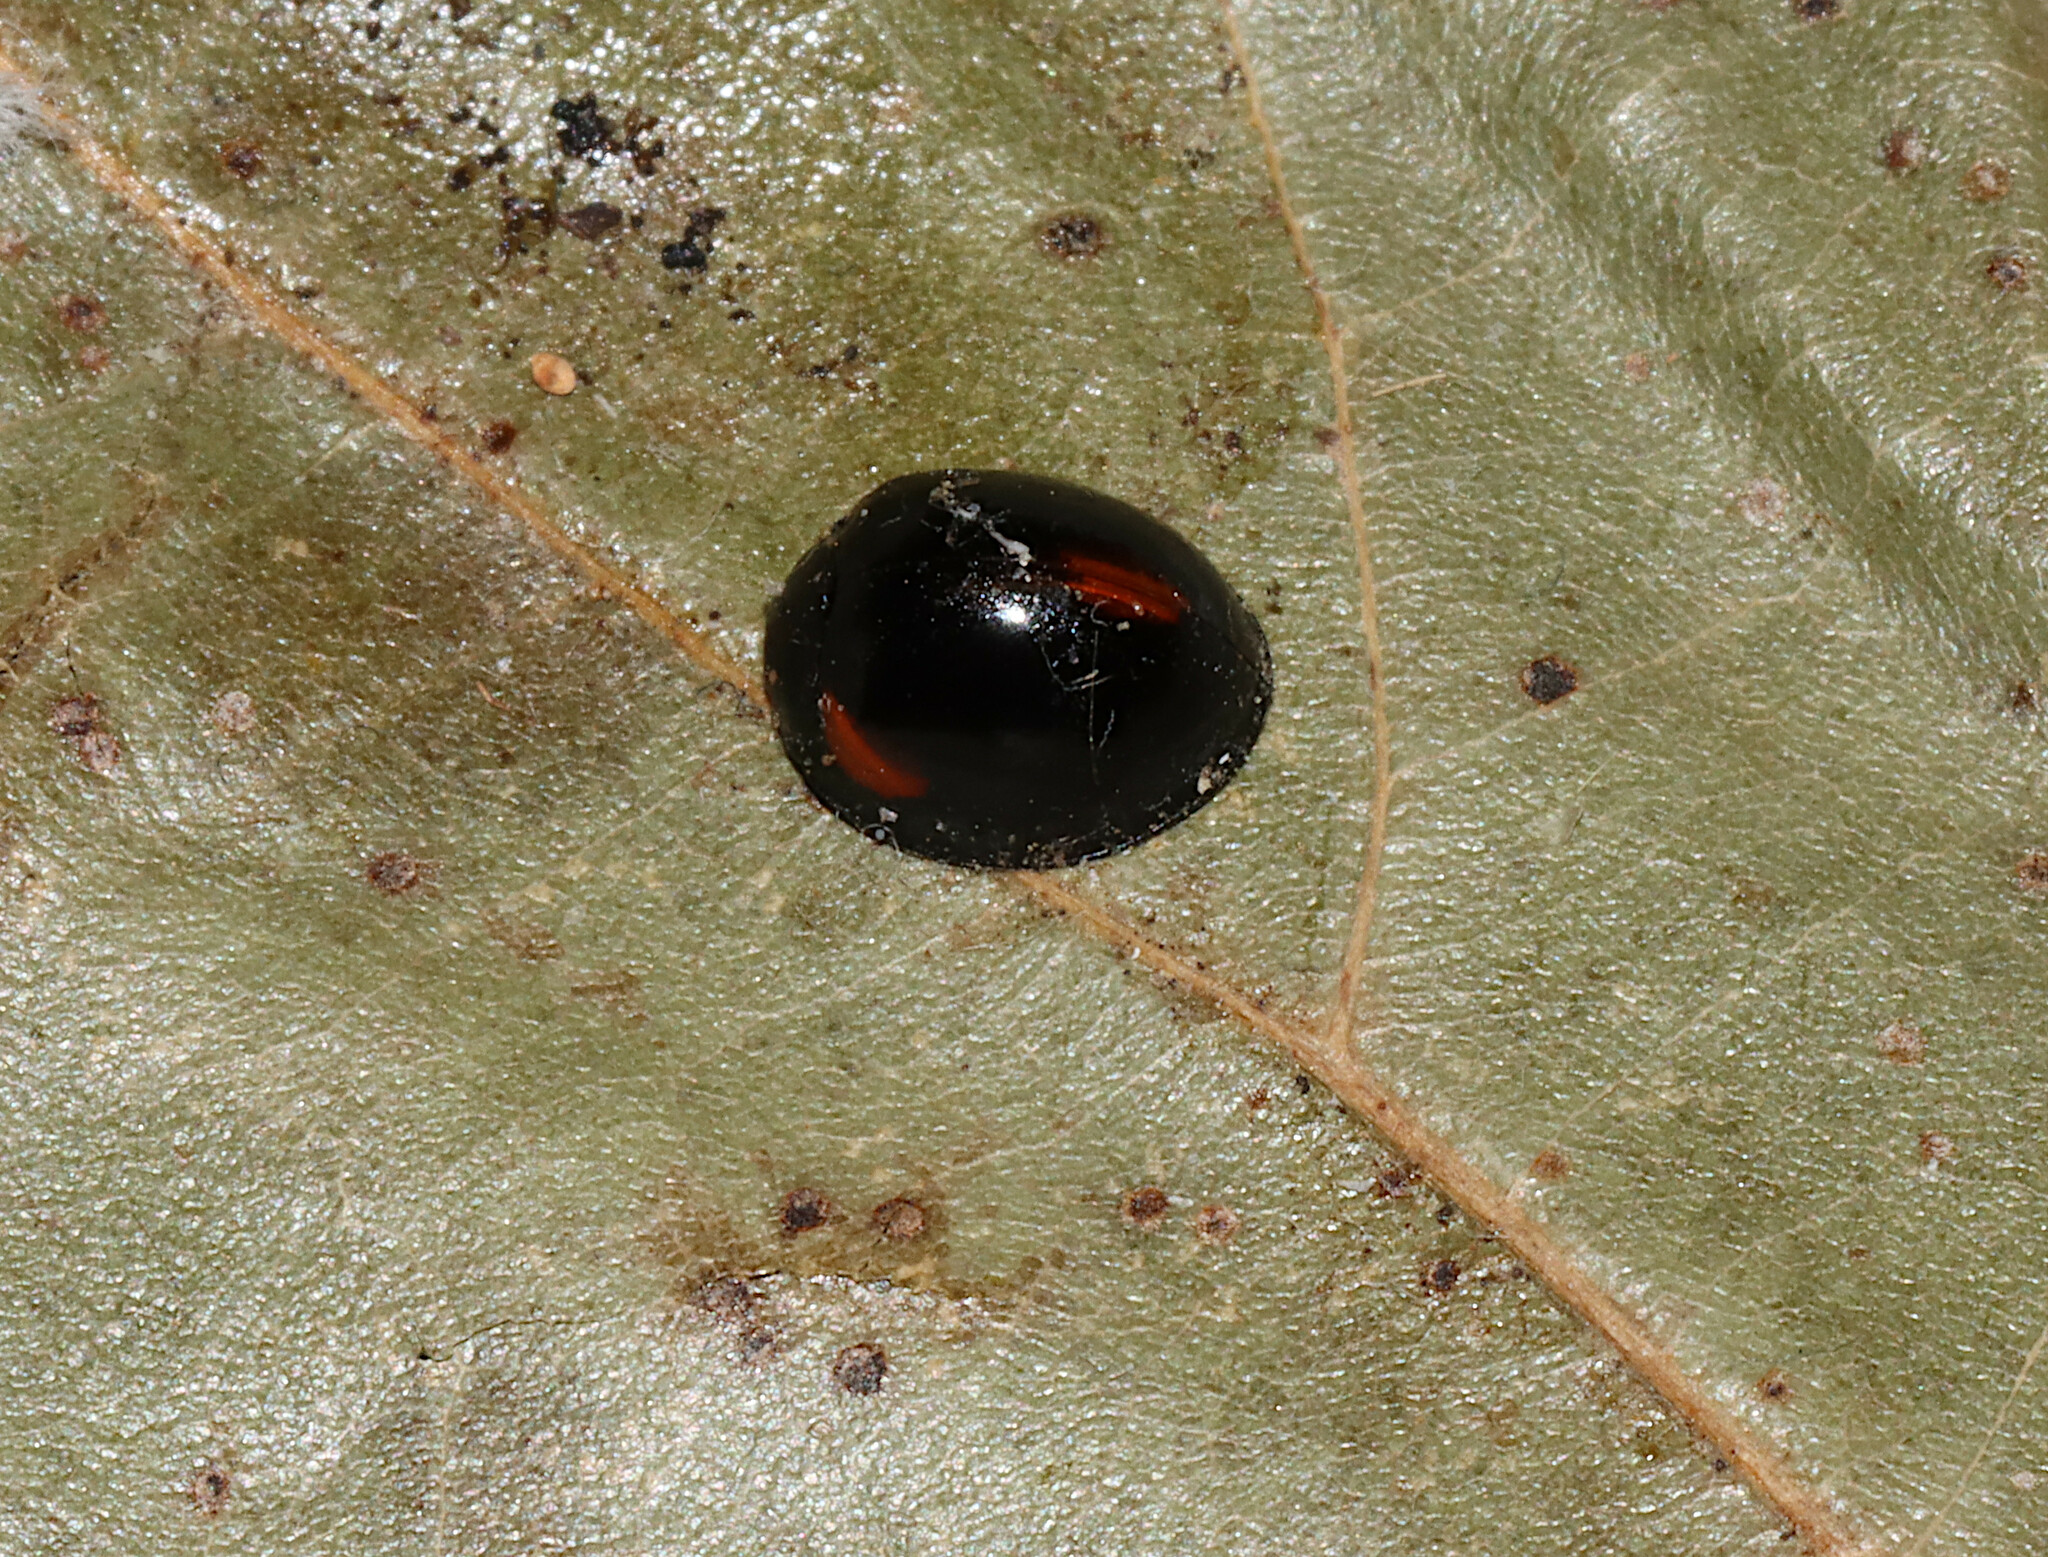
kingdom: Animalia
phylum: Arthropoda
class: Insecta
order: Coleoptera
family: Coccinellidae
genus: Axion
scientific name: Axion tripustulatum
